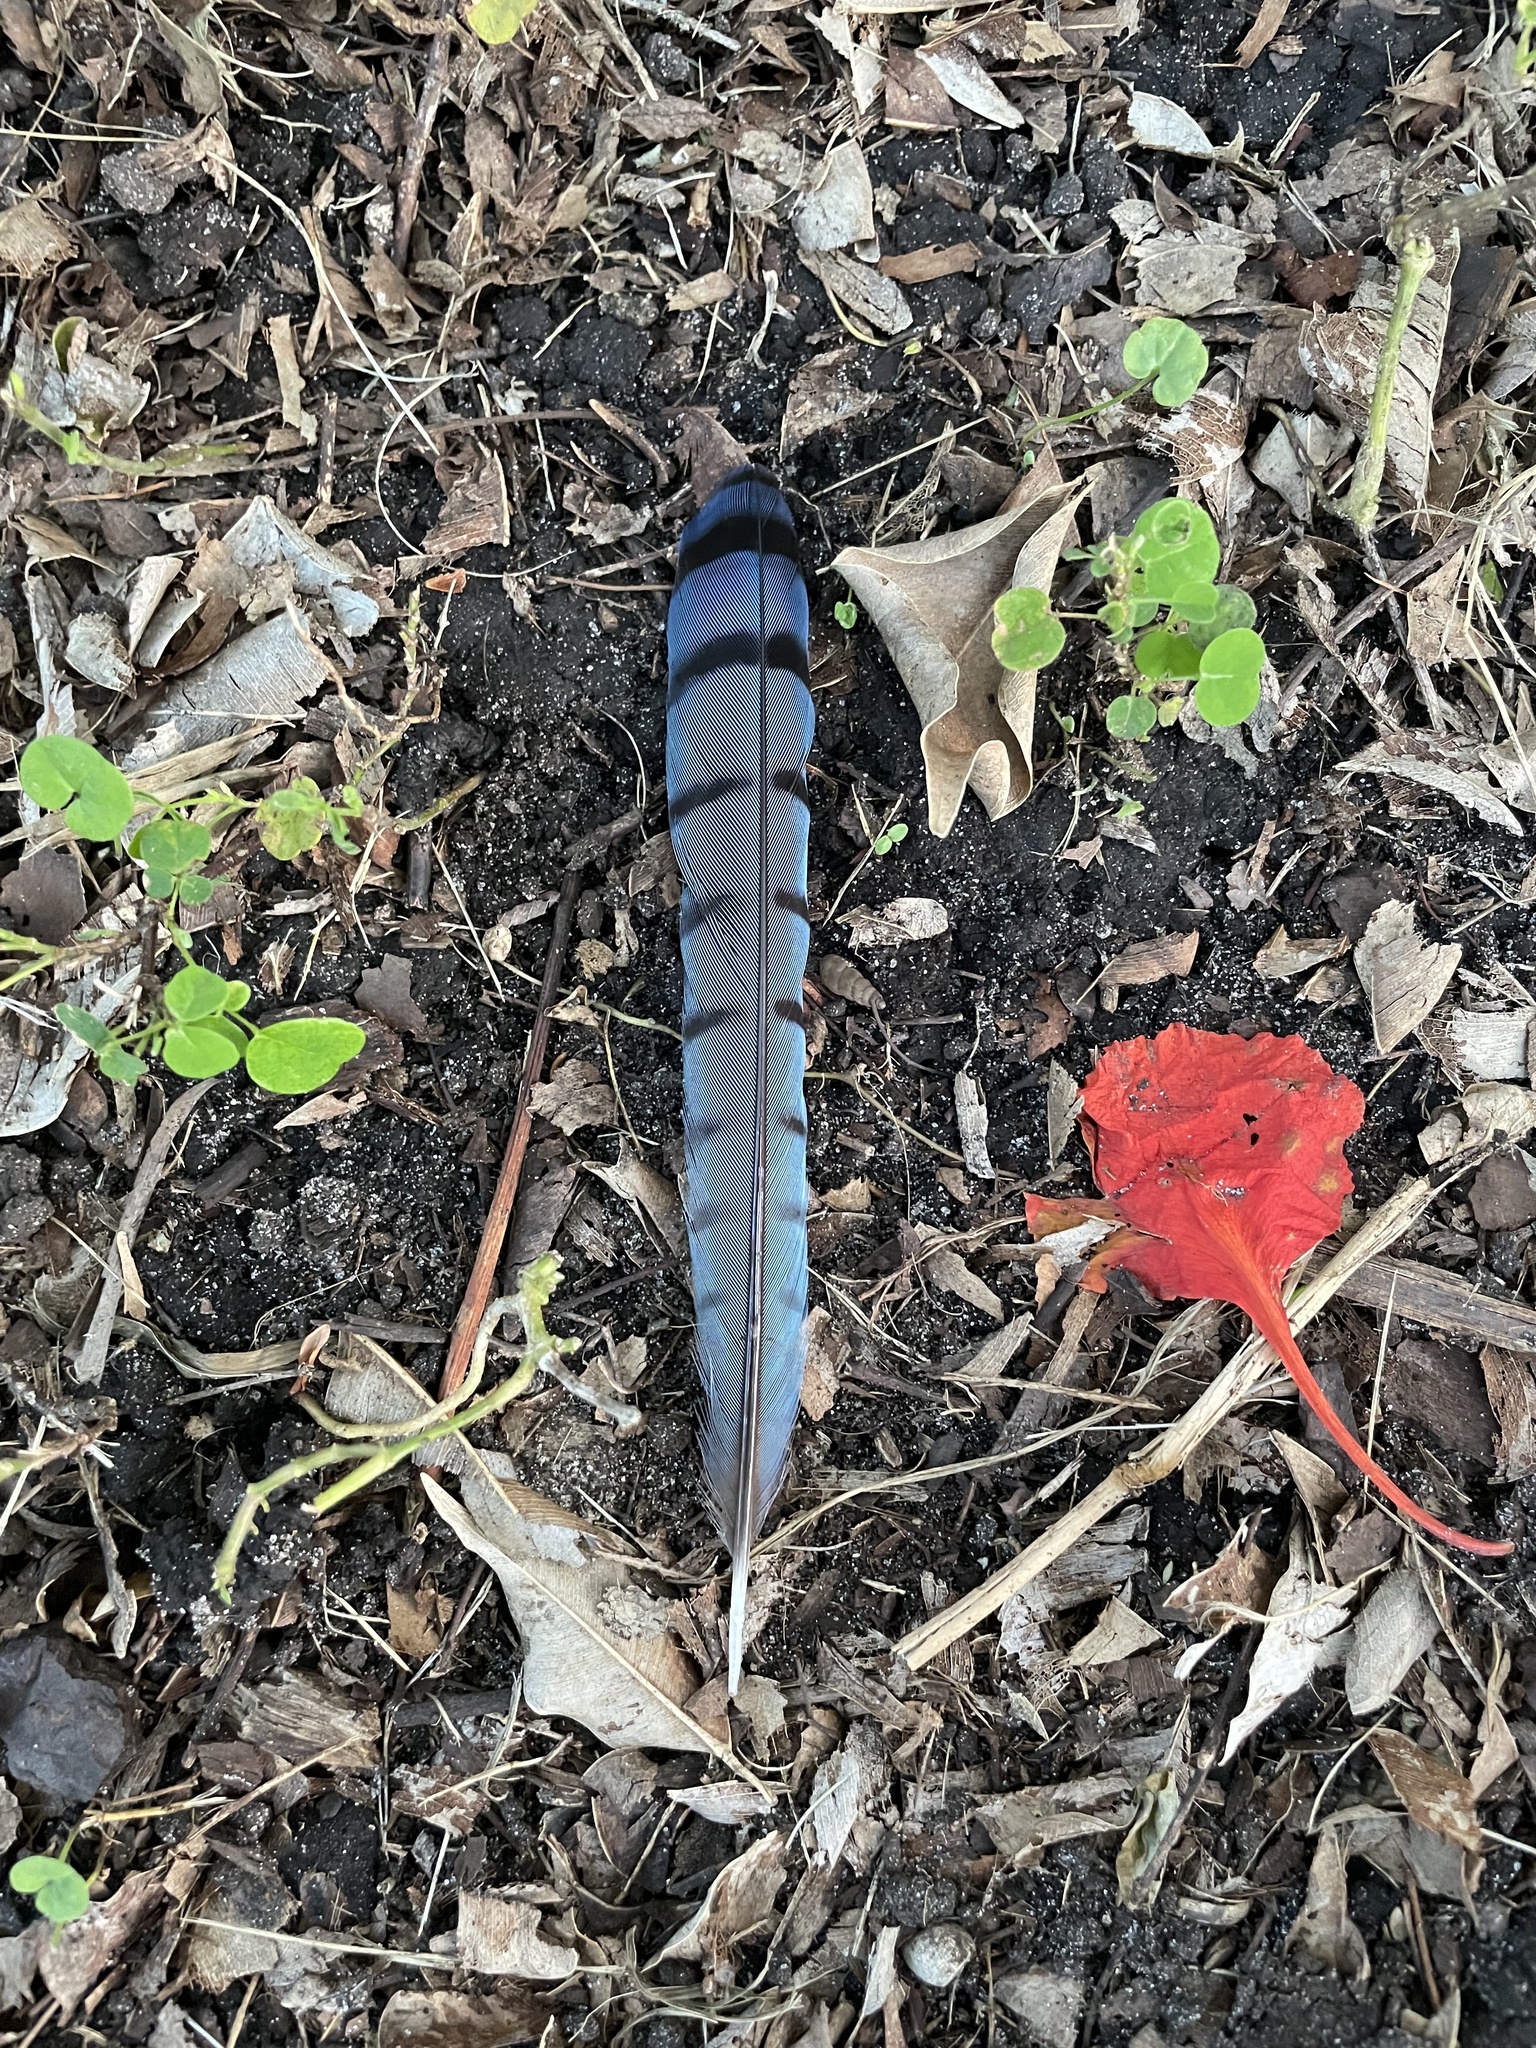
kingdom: Animalia
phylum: Chordata
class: Aves
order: Passeriformes
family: Corvidae
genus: Cyanocitta
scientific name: Cyanocitta cristata
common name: Blue jay
